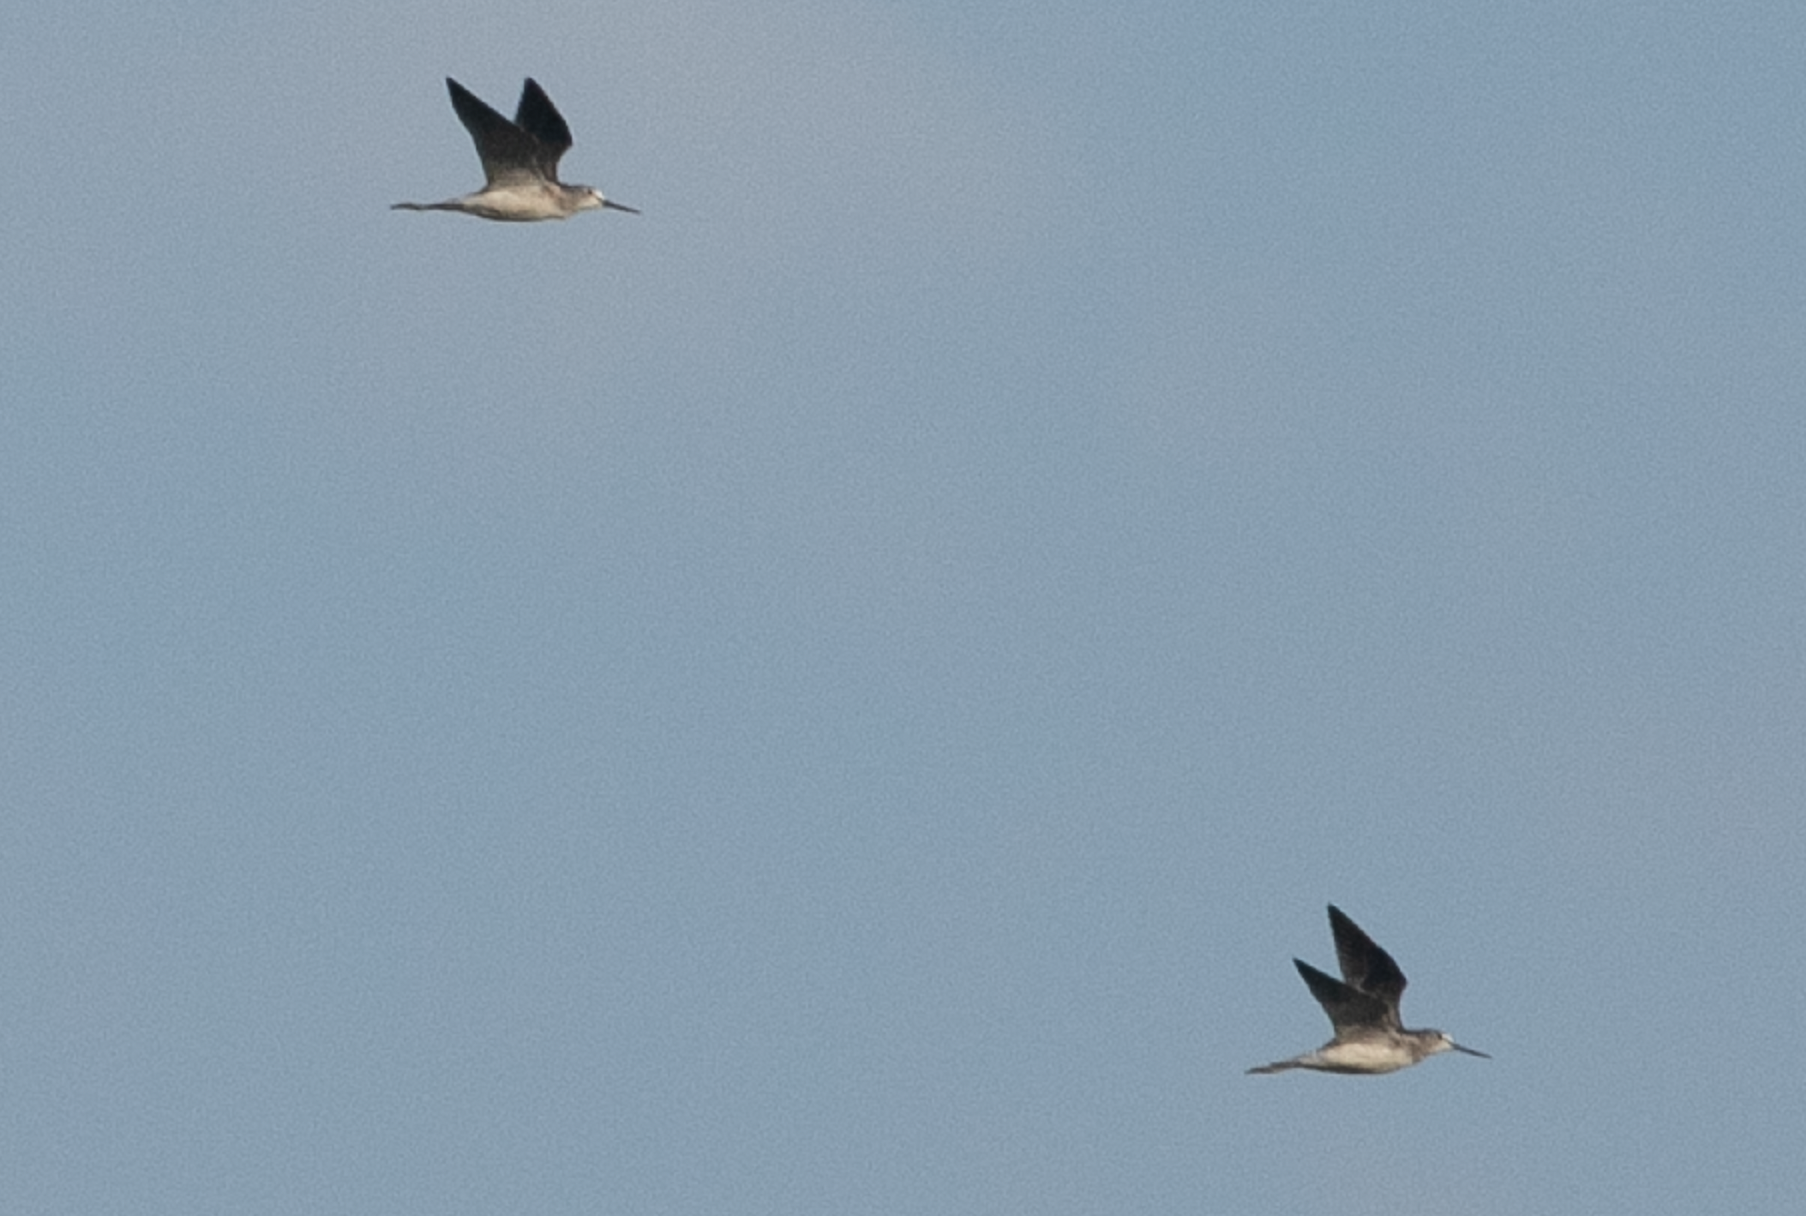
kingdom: Animalia
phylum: Chordata
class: Aves
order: Charadriiformes
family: Scolopacidae
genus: Tringa
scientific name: Tringa nebularia
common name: Common greenshank
